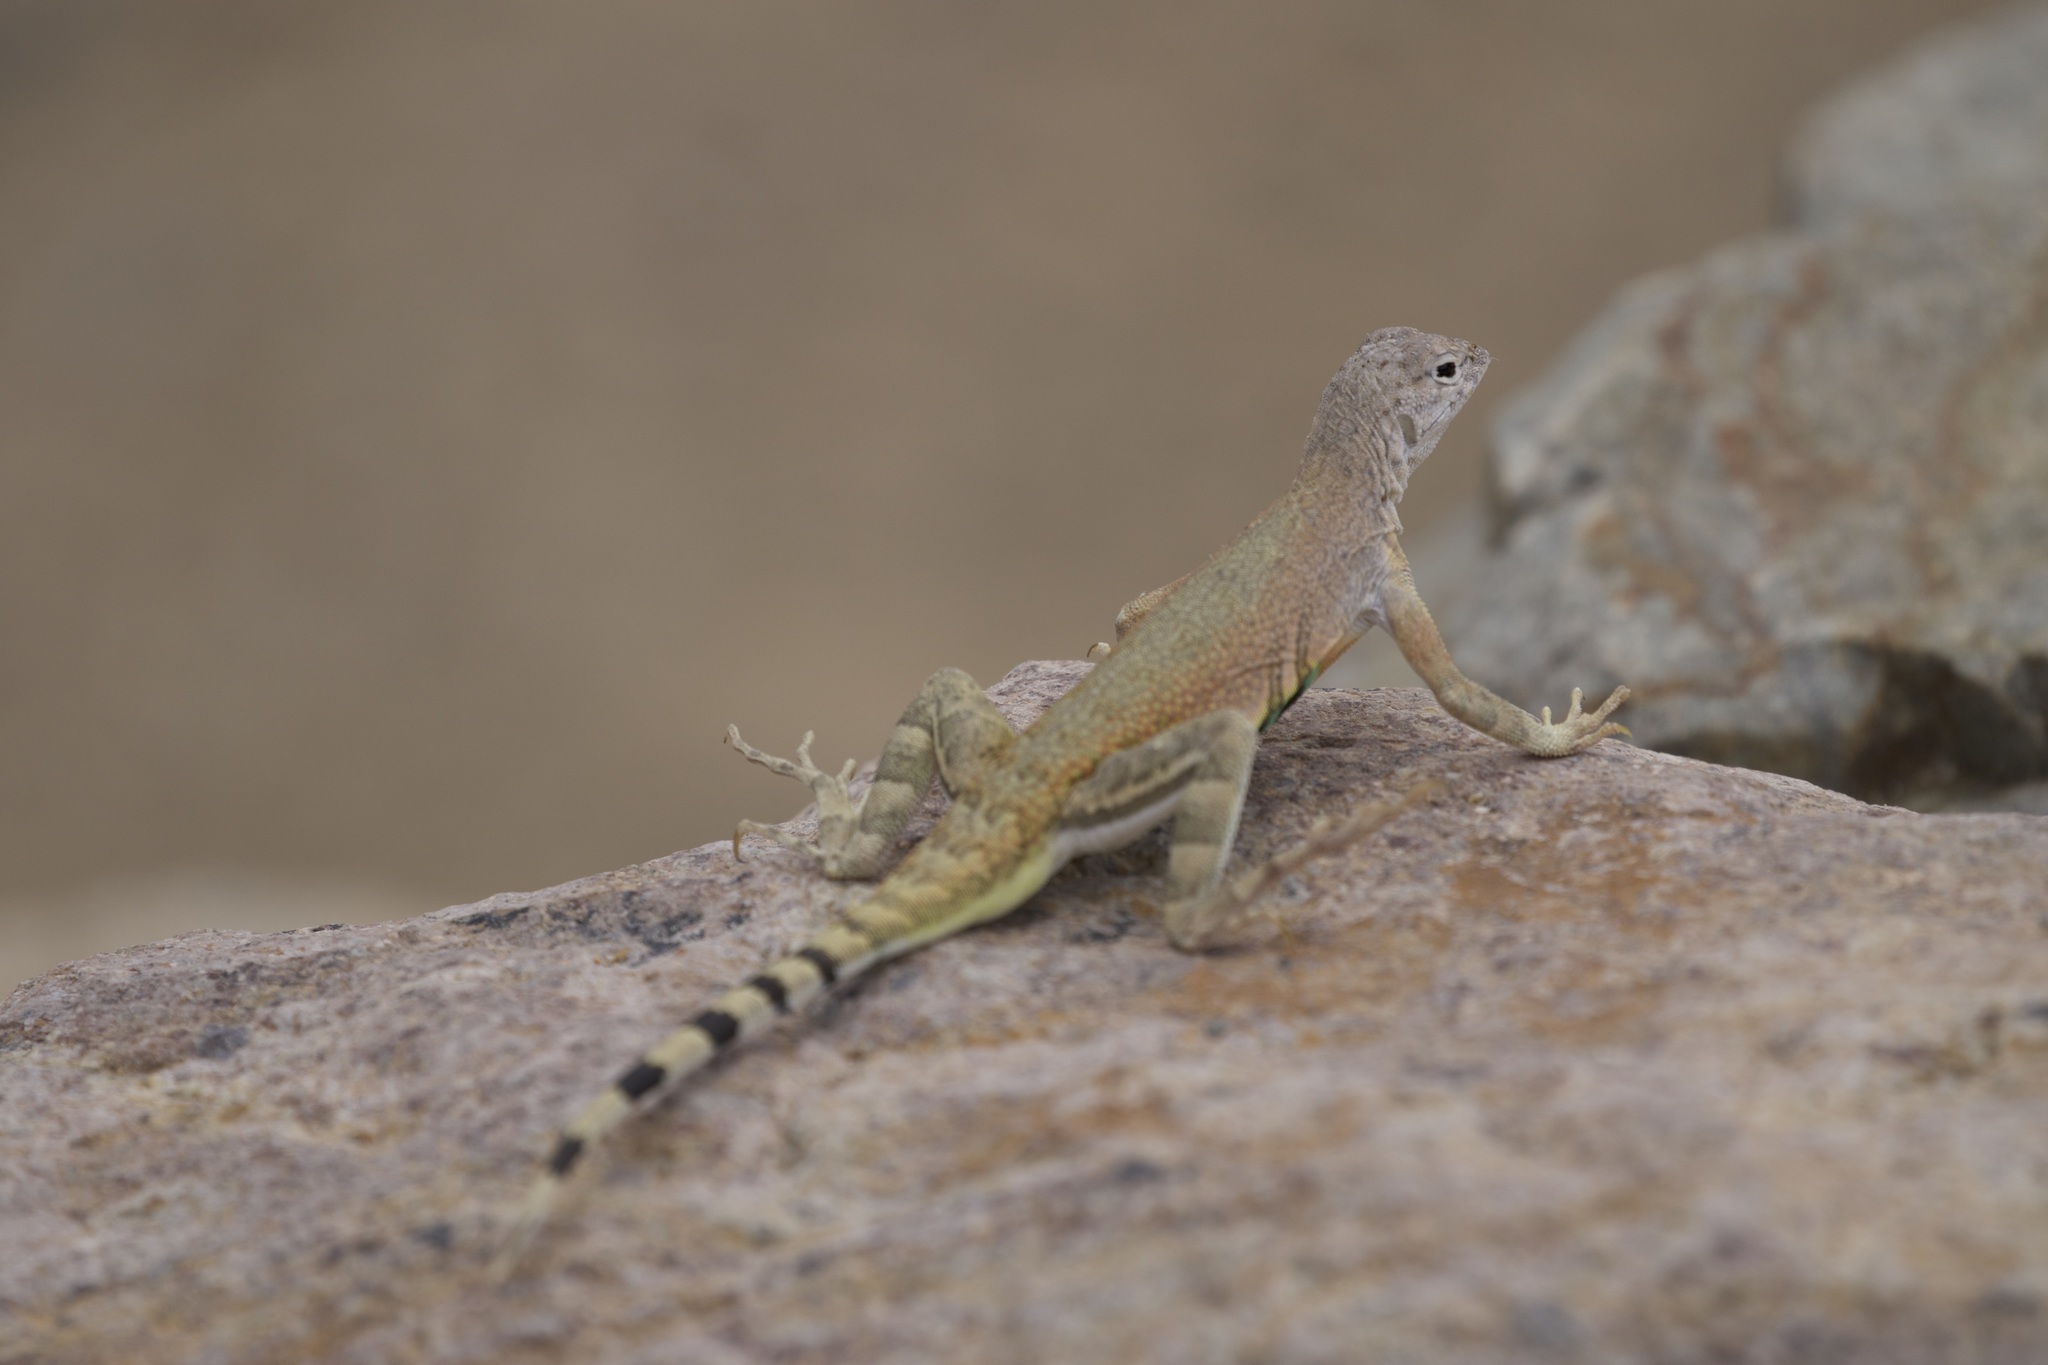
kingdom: Animalia
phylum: Chordata
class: Squamata
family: Phrynosomatidae
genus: Callisaurus
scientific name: Callisaurus draconoides
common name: Zebra-tailed lizard
